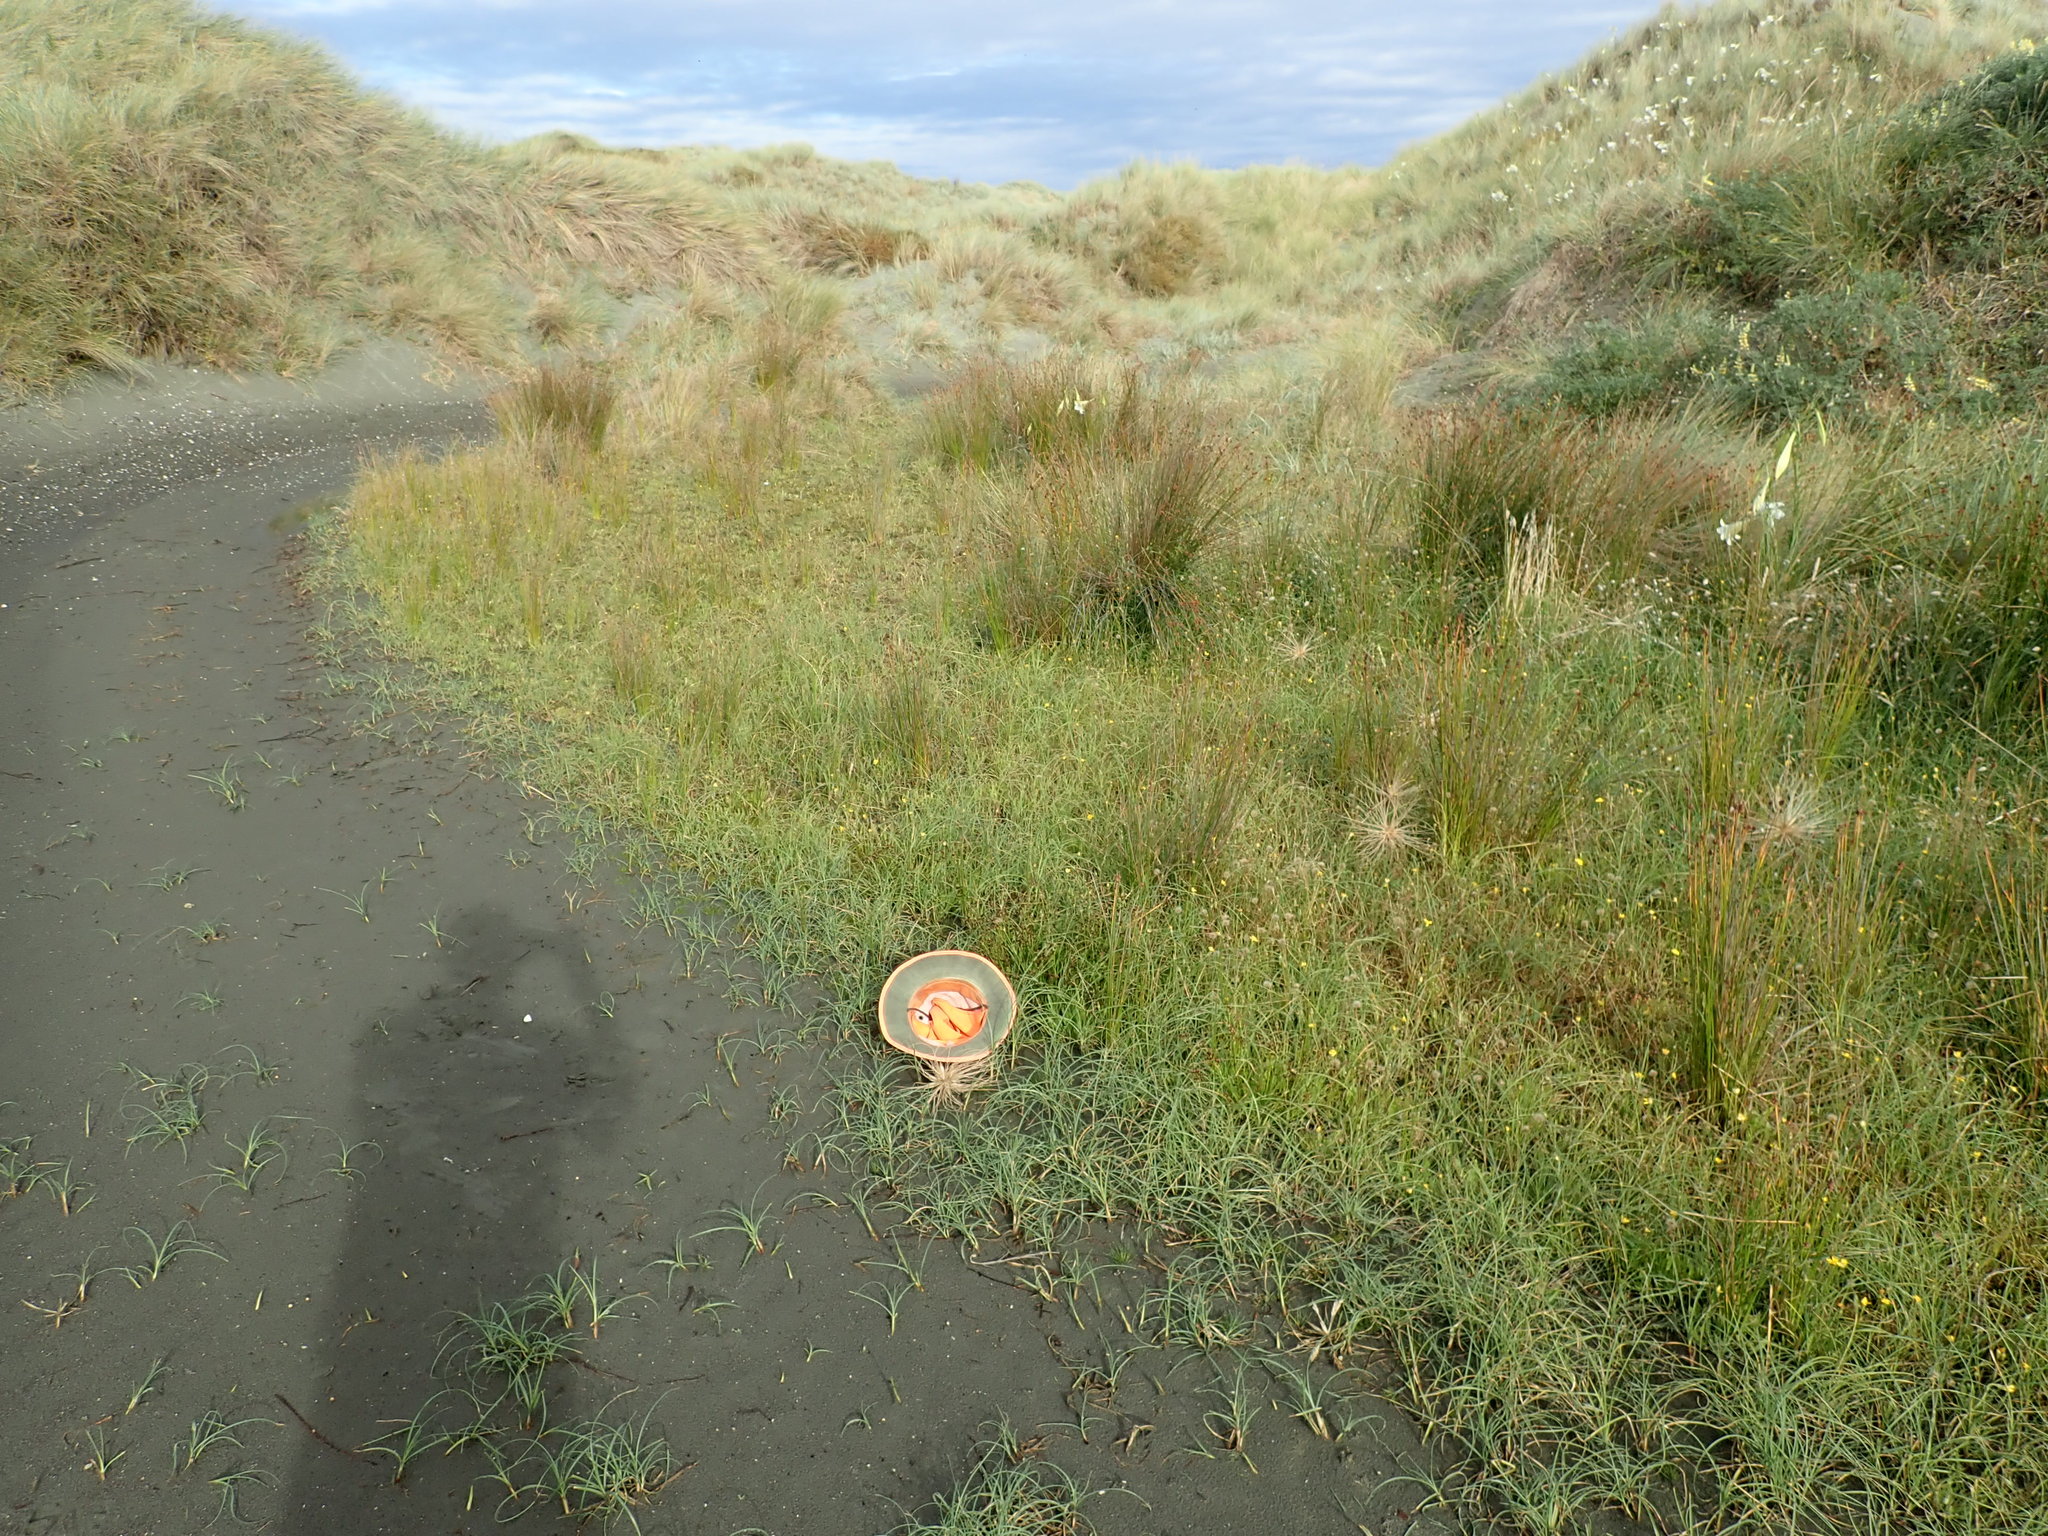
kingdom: Plantae
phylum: Tracheophyta
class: Liliopsida
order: Poales
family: Cyperaceae
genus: Carex
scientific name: Carex pumila
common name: Dwarf sedge
